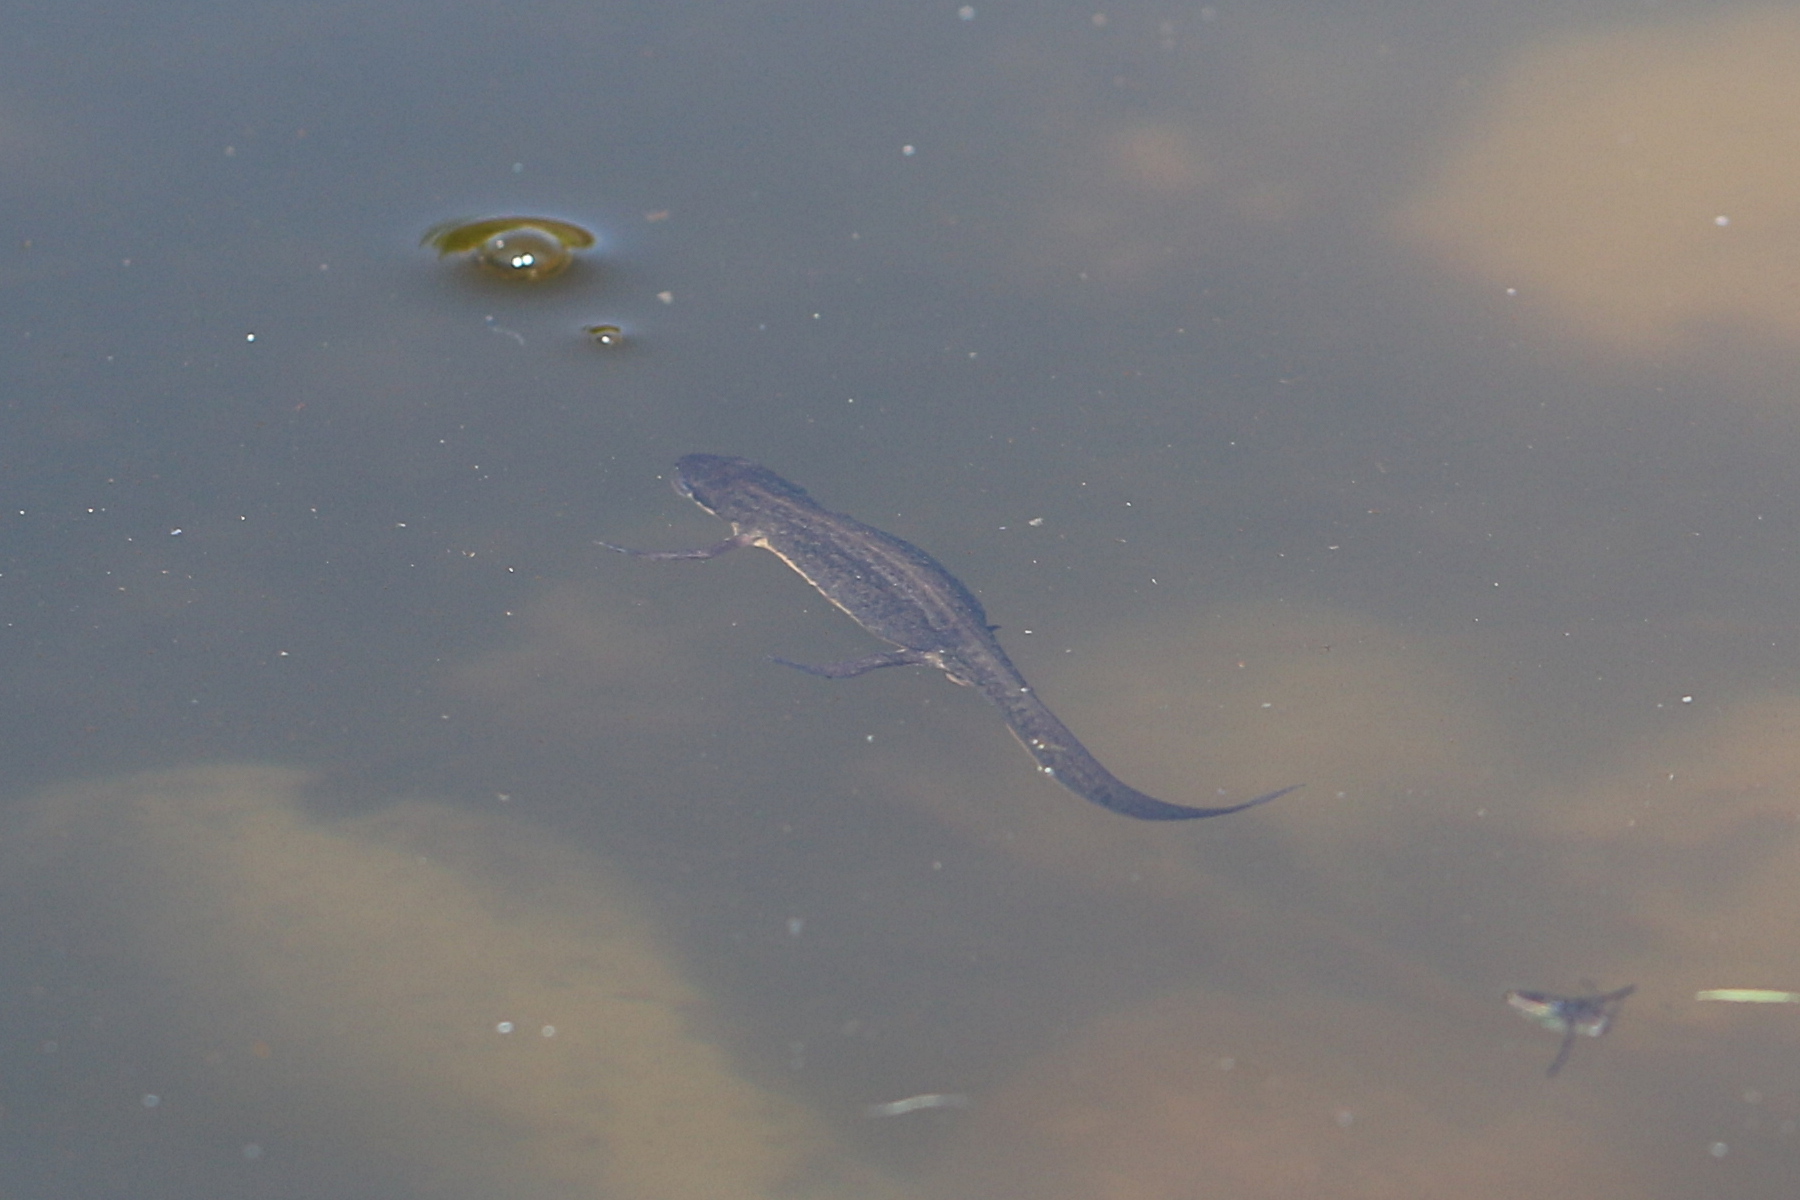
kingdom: Animalia
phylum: Chordata
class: Amphibia
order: Caudata
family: Salamandridae
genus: Lissotriton
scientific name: Lissotriton vulgaris
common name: Smooth newt
